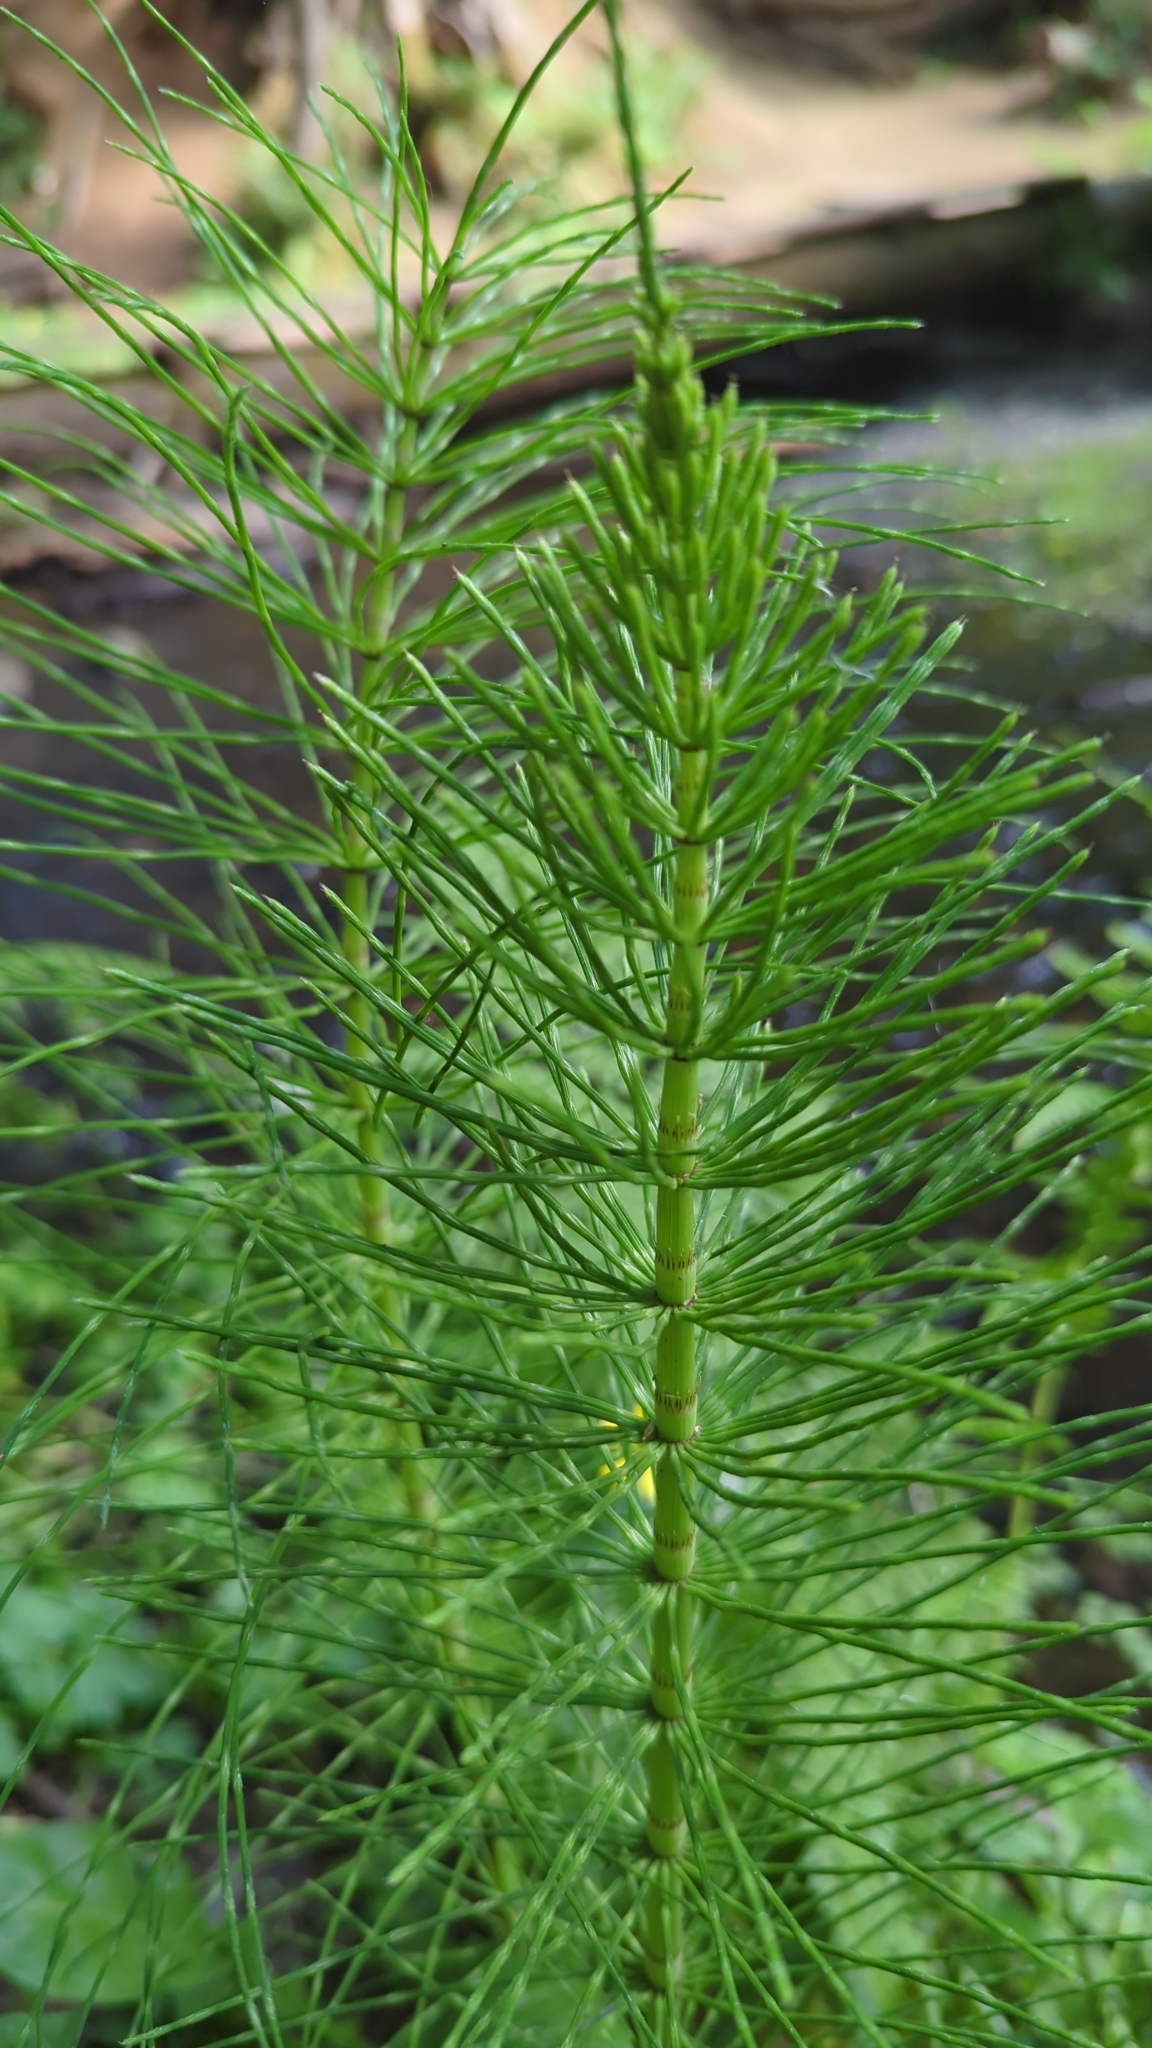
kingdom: Plantae
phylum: Tracheophyta
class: Polypodiopsida
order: Equisetales
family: Equisetaceae
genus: Equisetum
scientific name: Equisetum telmateia
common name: Great horsetail
